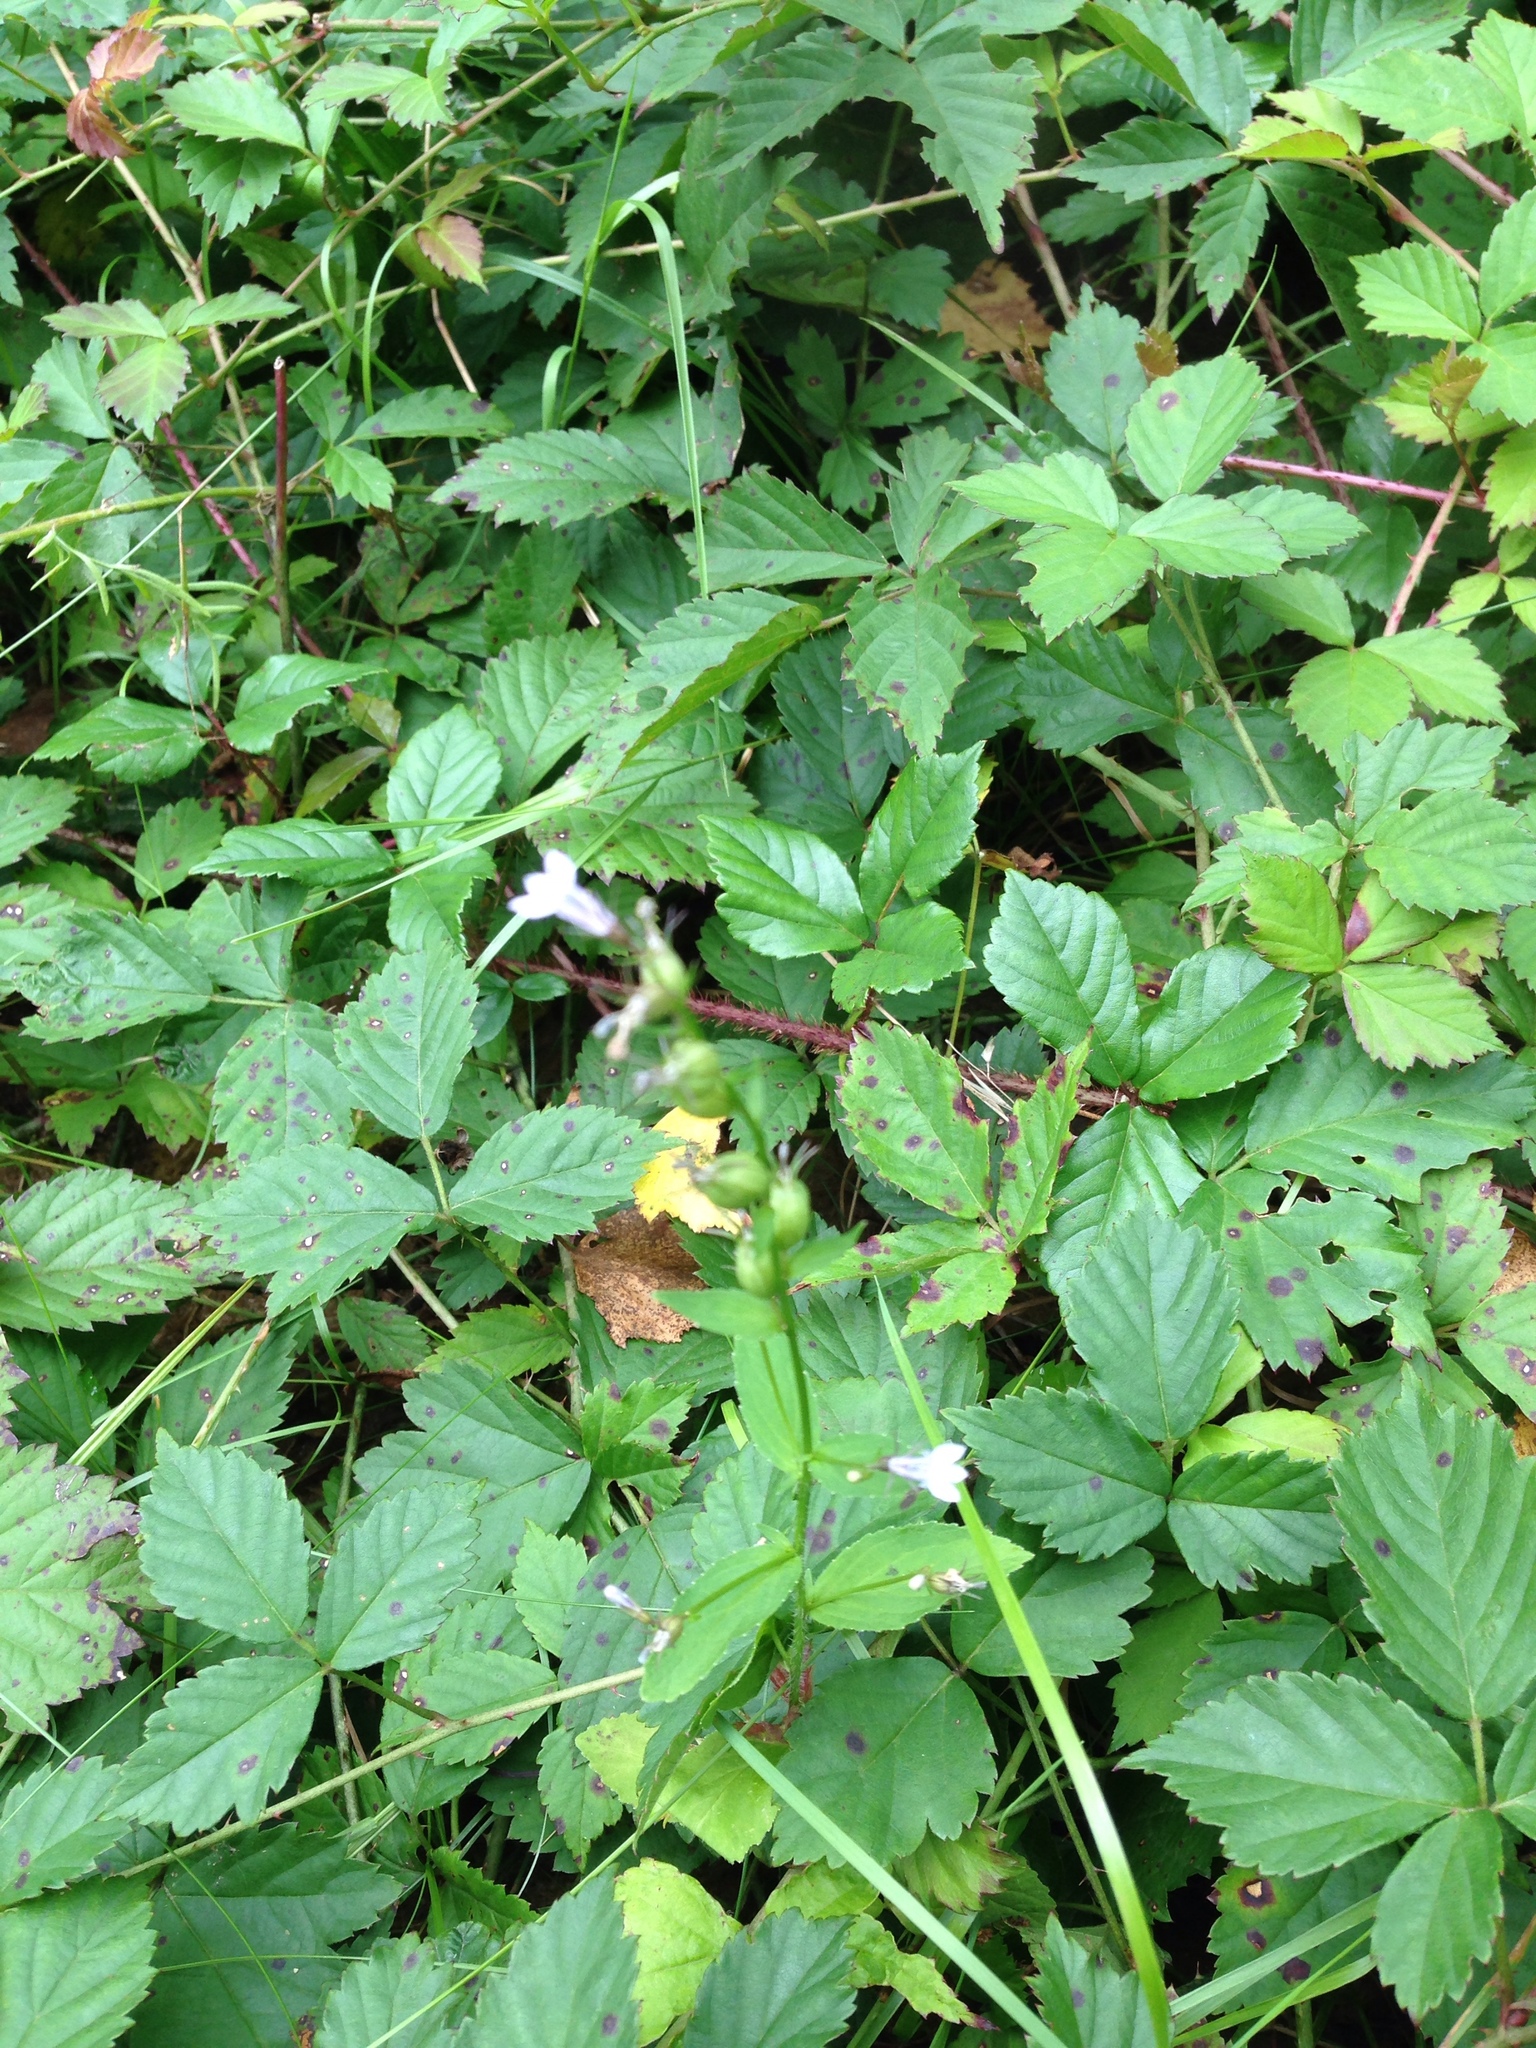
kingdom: Plantae
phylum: Tracheophyta
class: Magnoliopsida
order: Asterales
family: Campanulaceae
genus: Lobelia
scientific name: Lobelia inflata
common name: Indian tobacco
